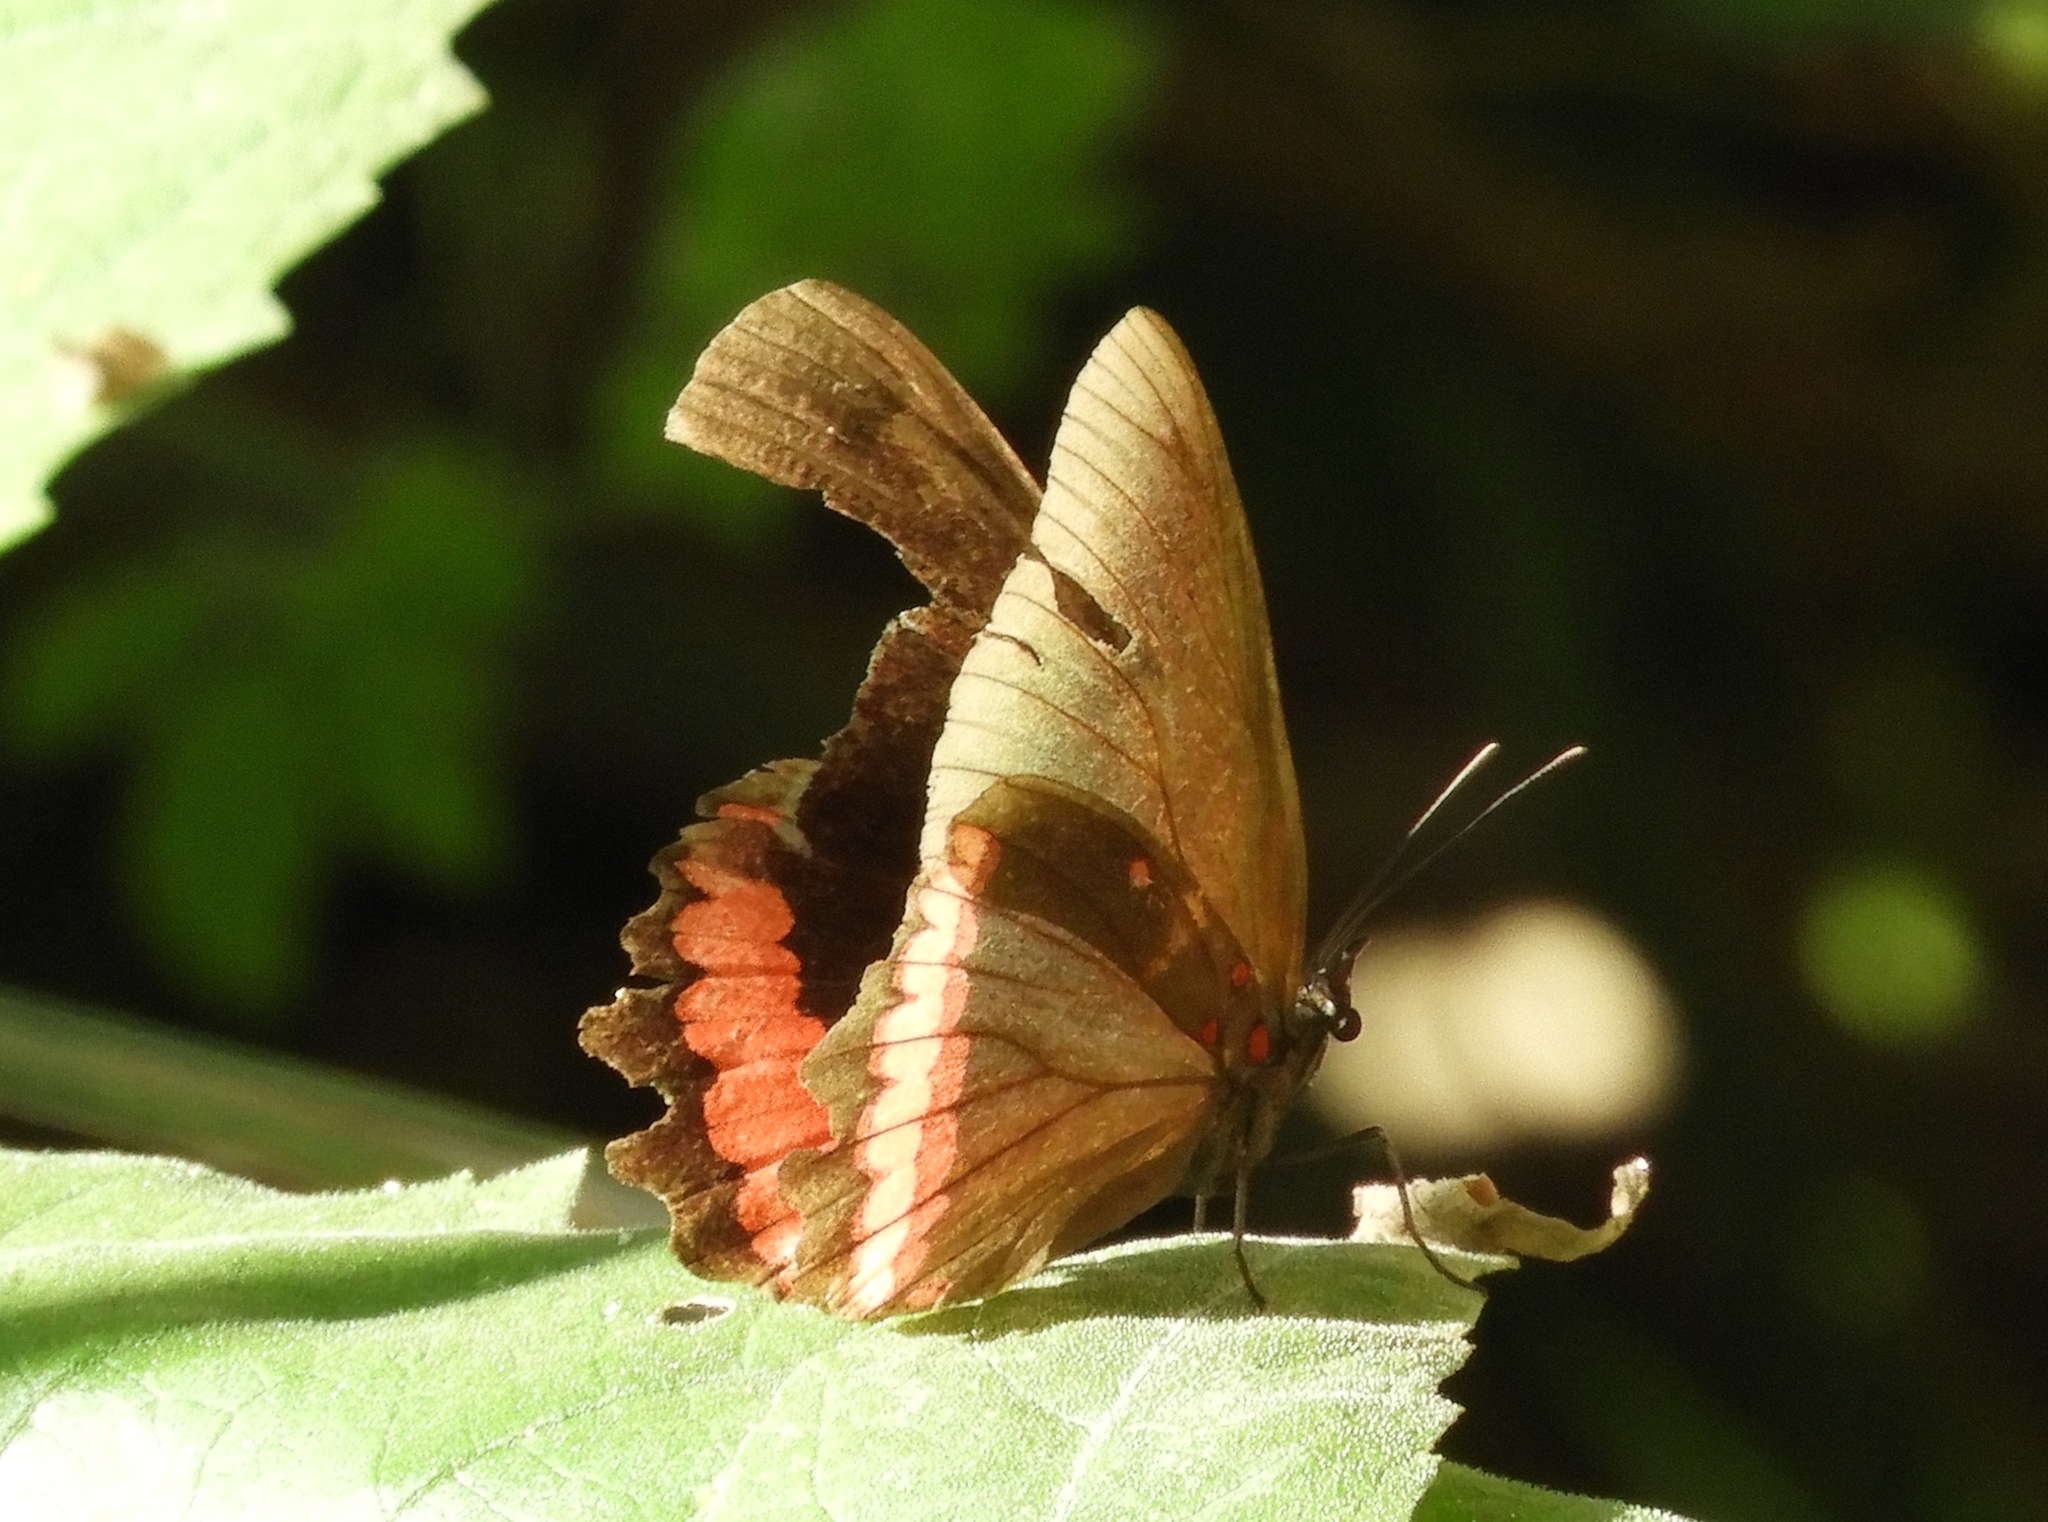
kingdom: Animalia
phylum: Arthropoda
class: Insecta
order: Lepidoptera
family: Nymphalidae
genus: Biblis
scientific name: Biblis aganisa
